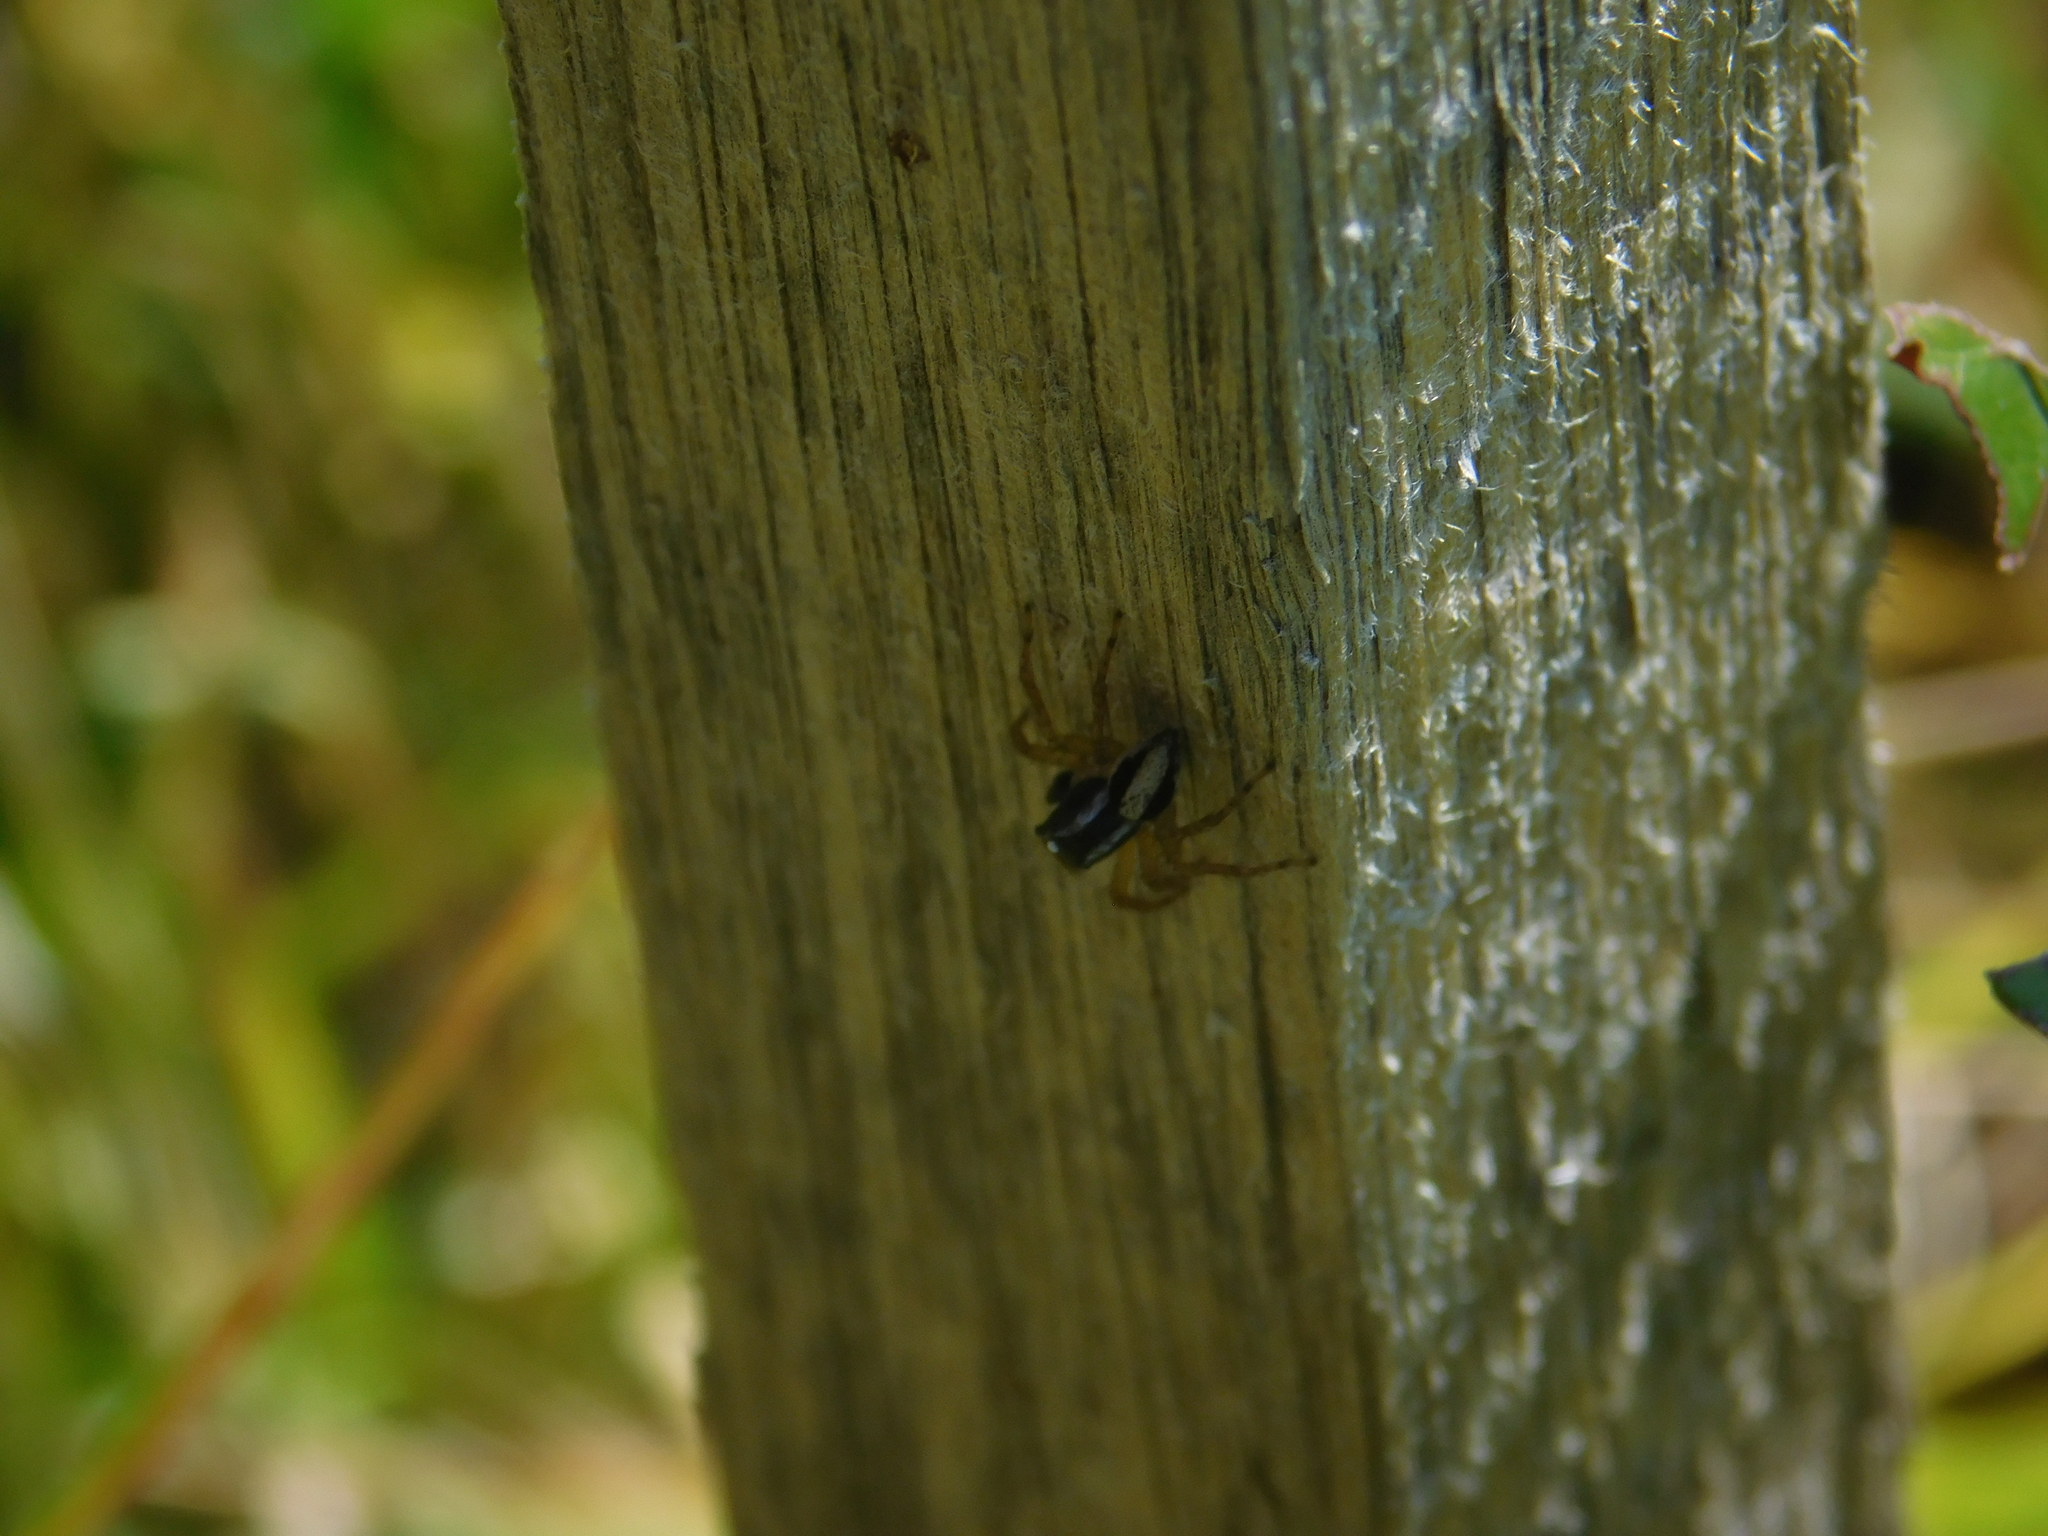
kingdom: Animalia
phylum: Arthropoda
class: Arachnida
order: Araneae
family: Salticidae
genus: Aphirape
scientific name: Aphirape
